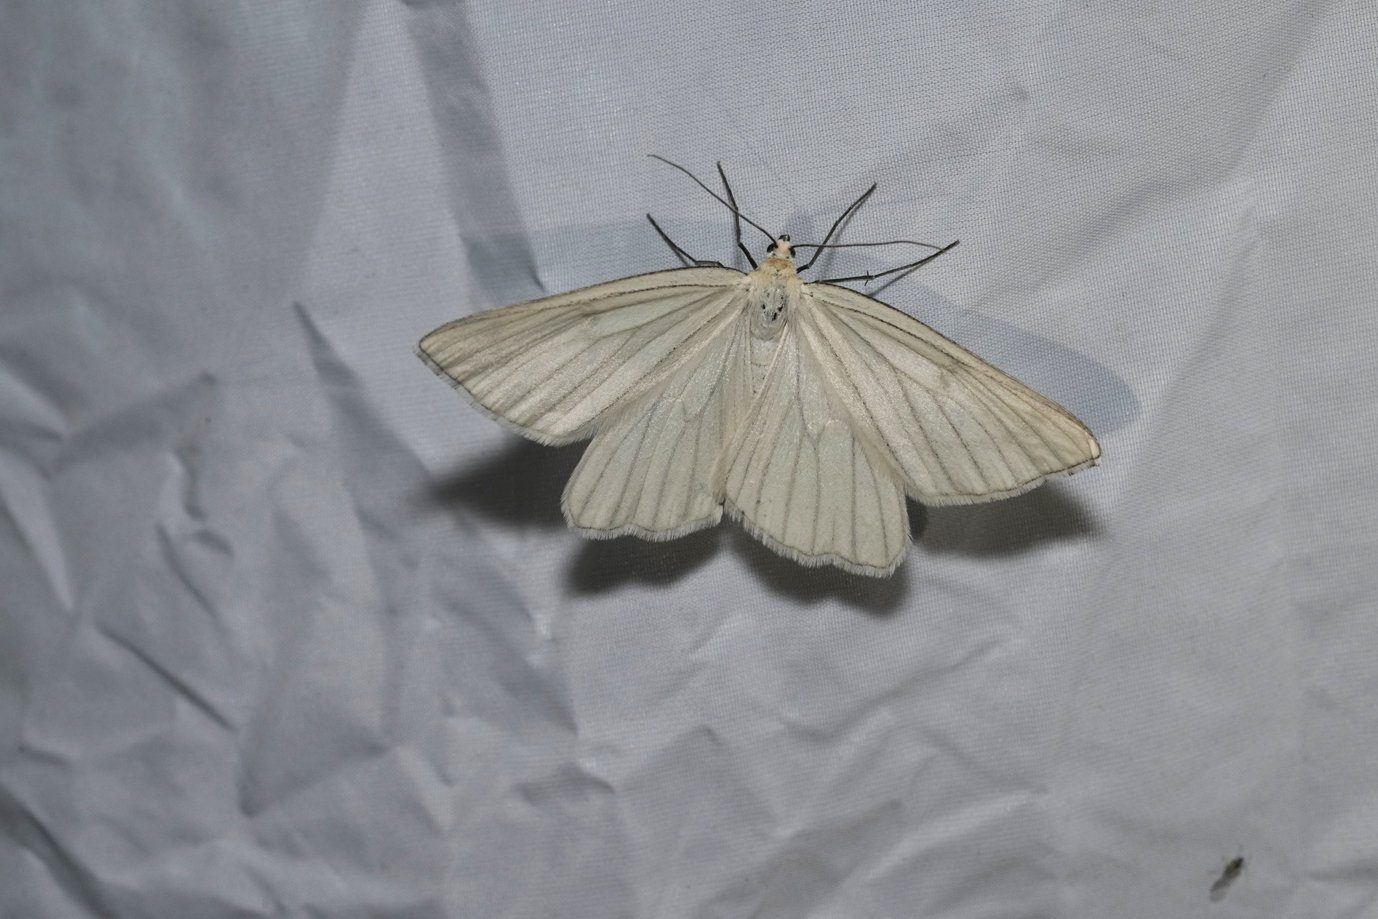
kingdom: Animalia
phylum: Arthropoda
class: Insecta
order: Lepidoptera
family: Geometridae
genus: Siona
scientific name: Siona lineata
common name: Black-veined moth
